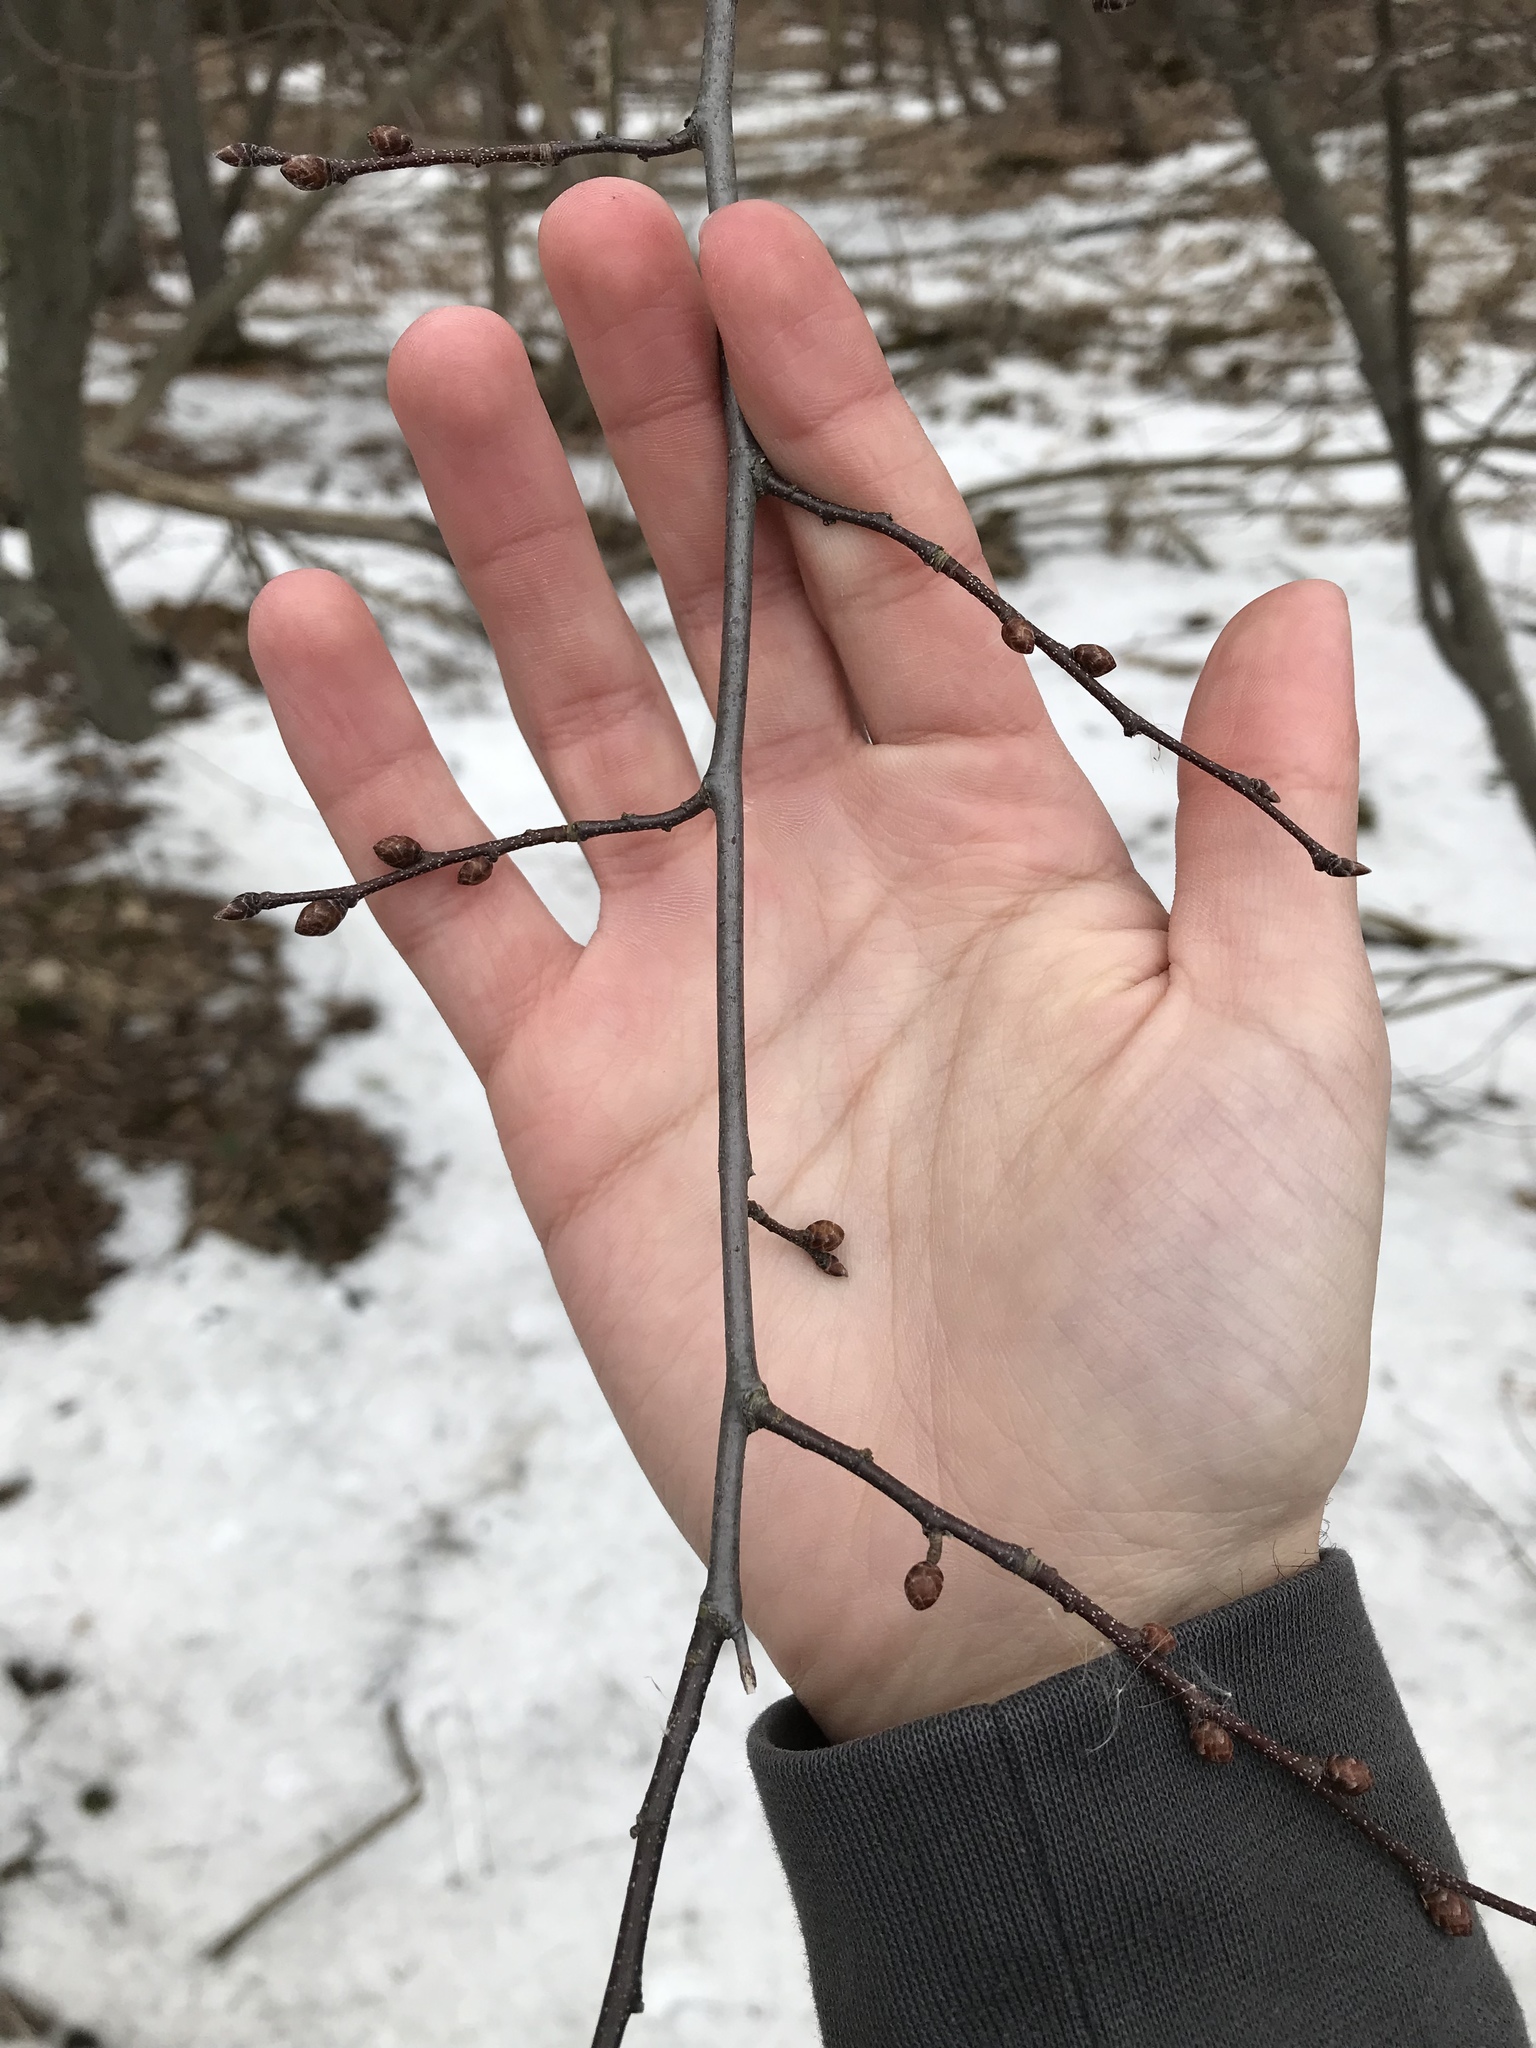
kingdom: Plantae
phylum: Tracheophyta
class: Magnoliopsida
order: Fagales
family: Betulaceae
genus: Carpinus
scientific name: Carpinus caroliniana
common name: American hornbeam
